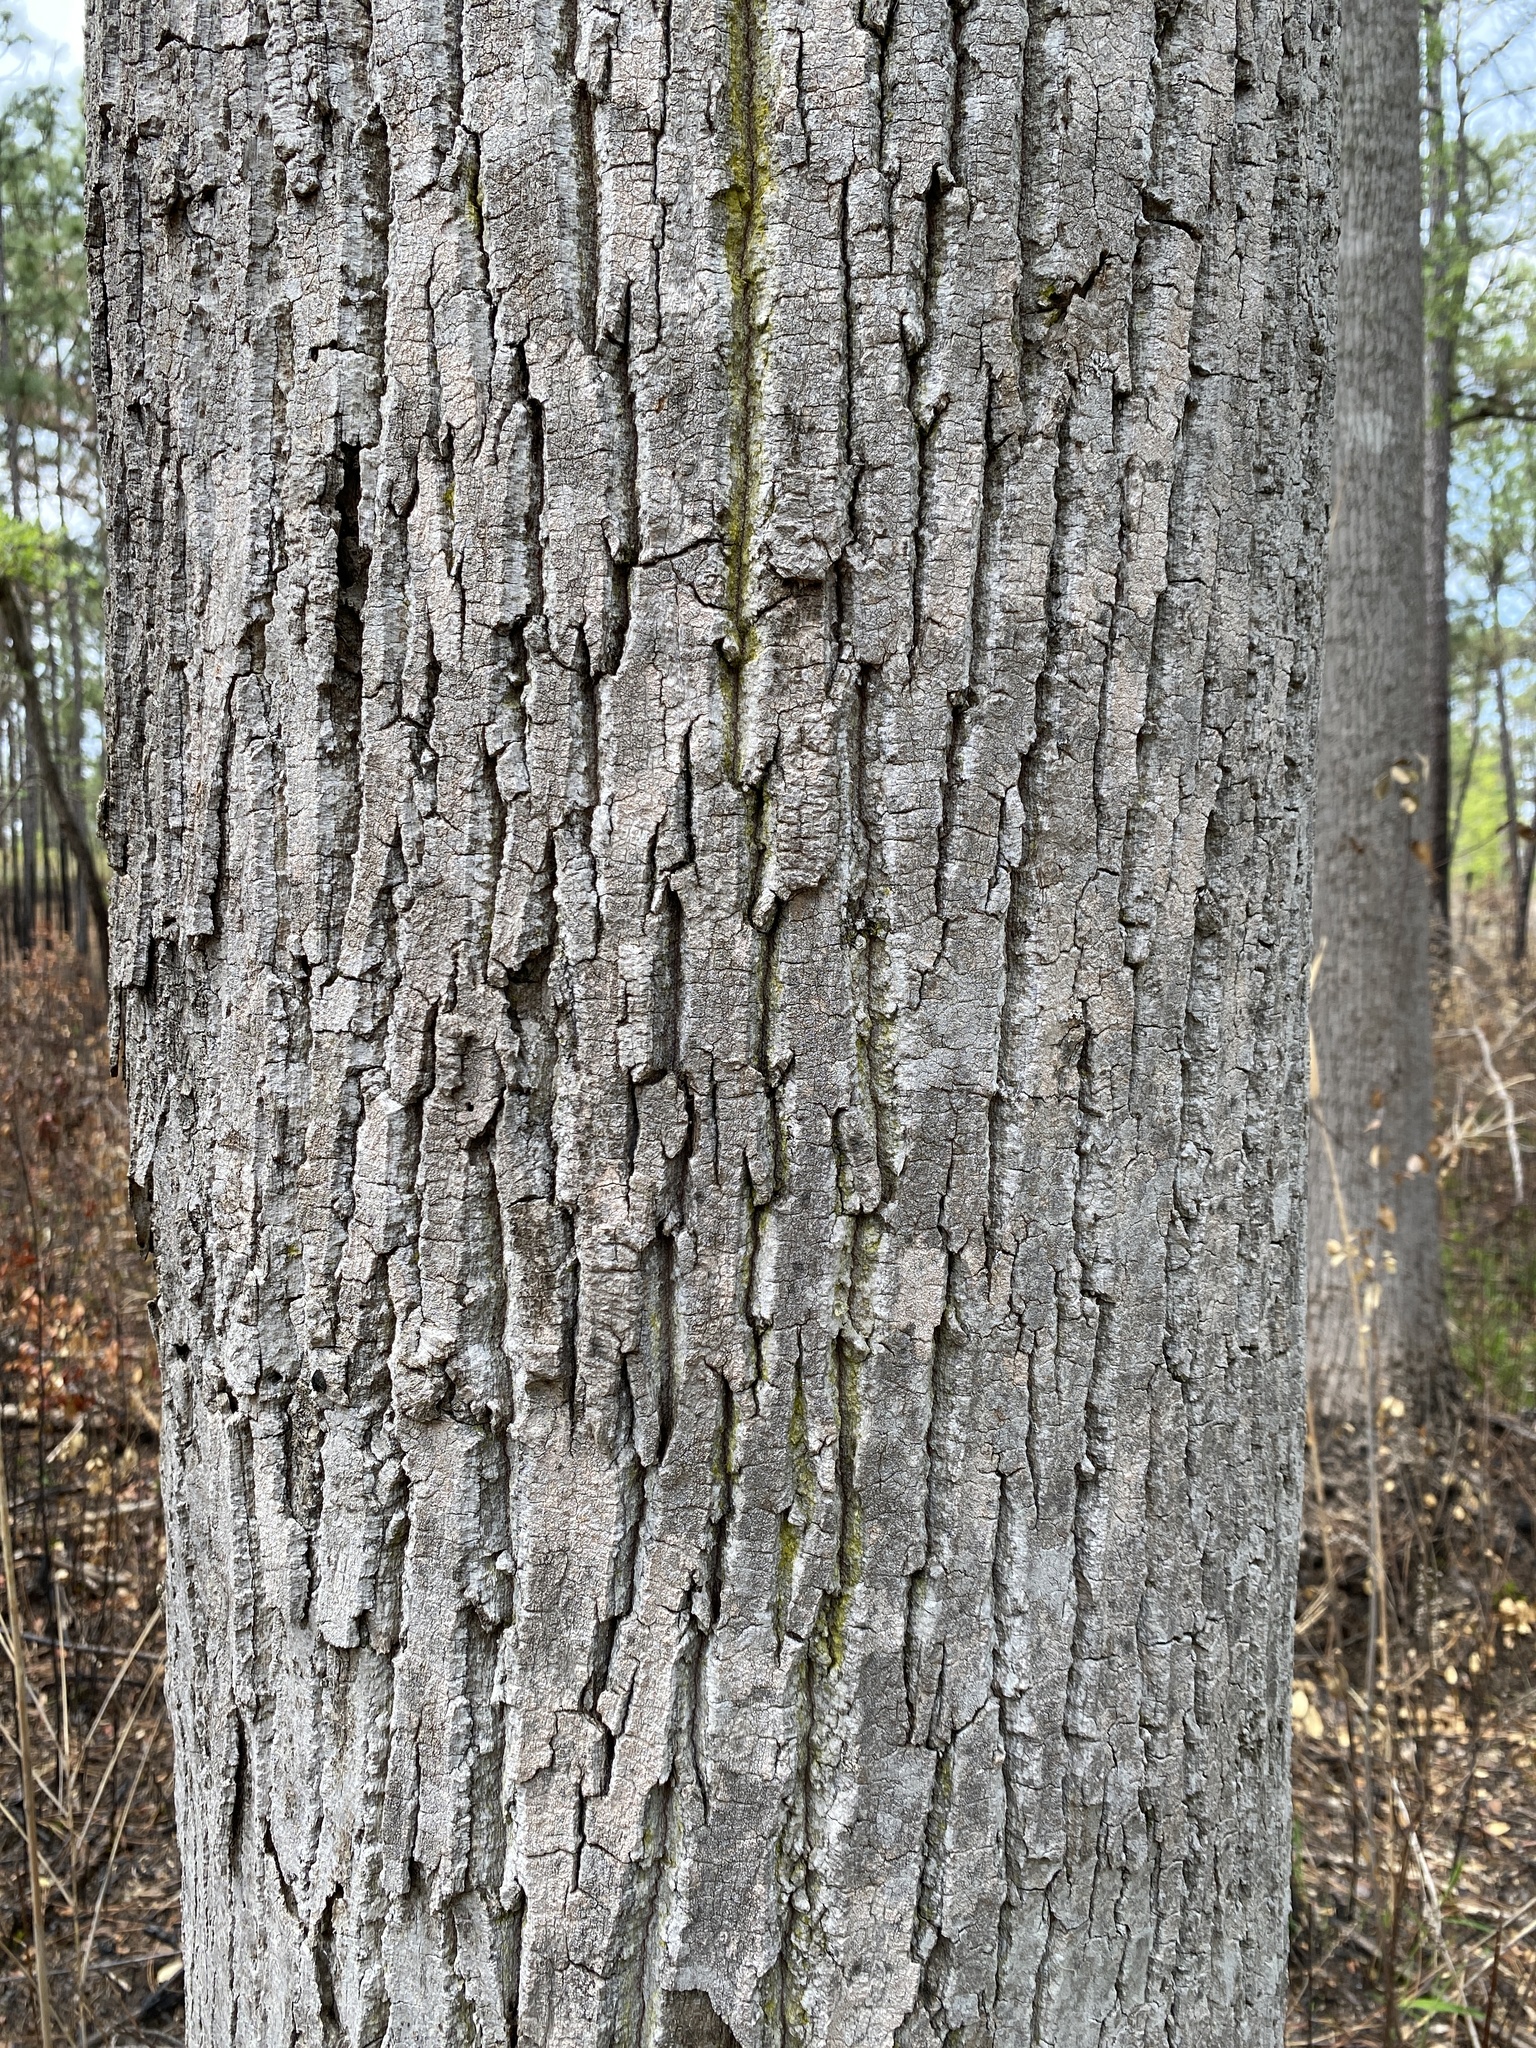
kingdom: Plantae
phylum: Tracheophyta
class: Magnoliopsida
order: Magnoliales
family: Magnoliaceae
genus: Liriodendron
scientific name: Liriodendron tulipifera
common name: Tulip tree
